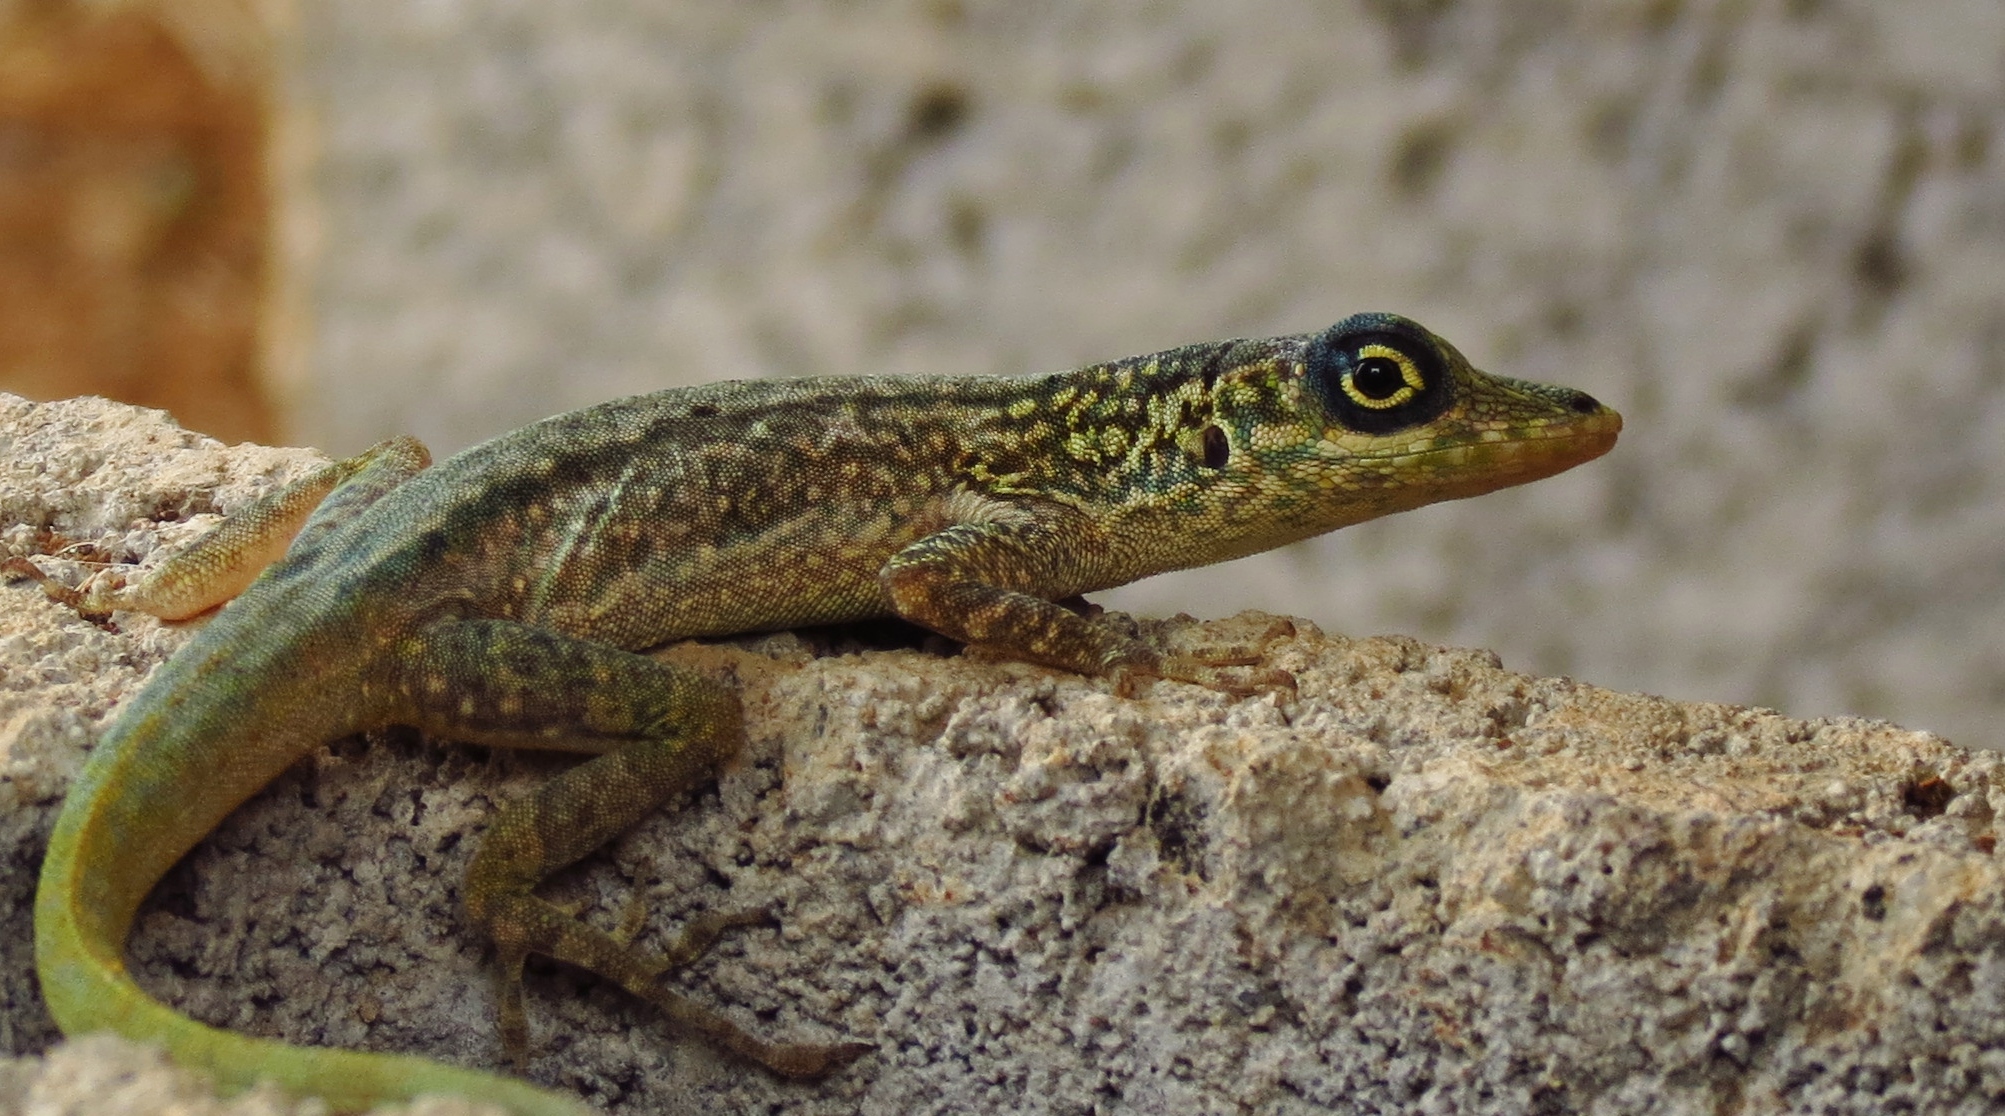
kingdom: Animalia
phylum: Chordata
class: Squamata
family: Dactyloidae
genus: Anolis
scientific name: Anolis roquet
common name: Martinique anole
